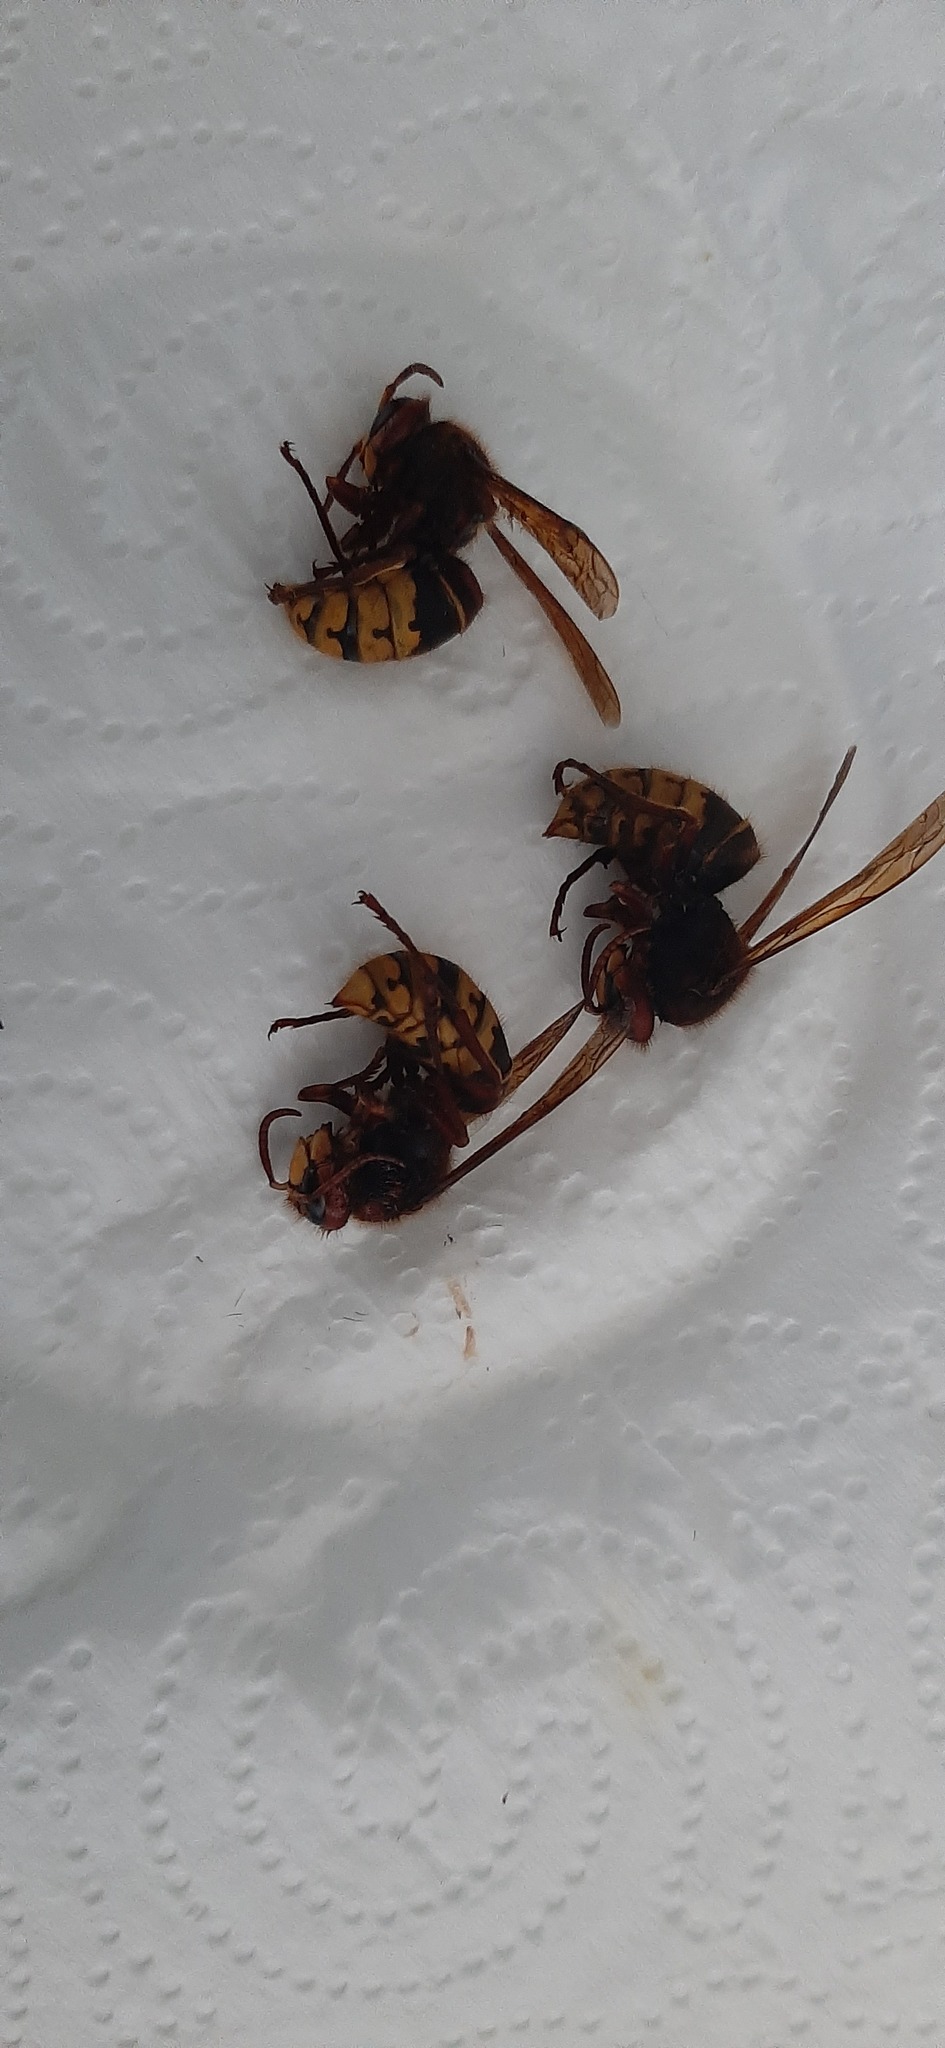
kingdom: Animalia
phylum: Arthropoda
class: Insecta
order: Hymenoptera
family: Vespidae
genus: Vespa
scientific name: Vespa crabro
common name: Hornet
